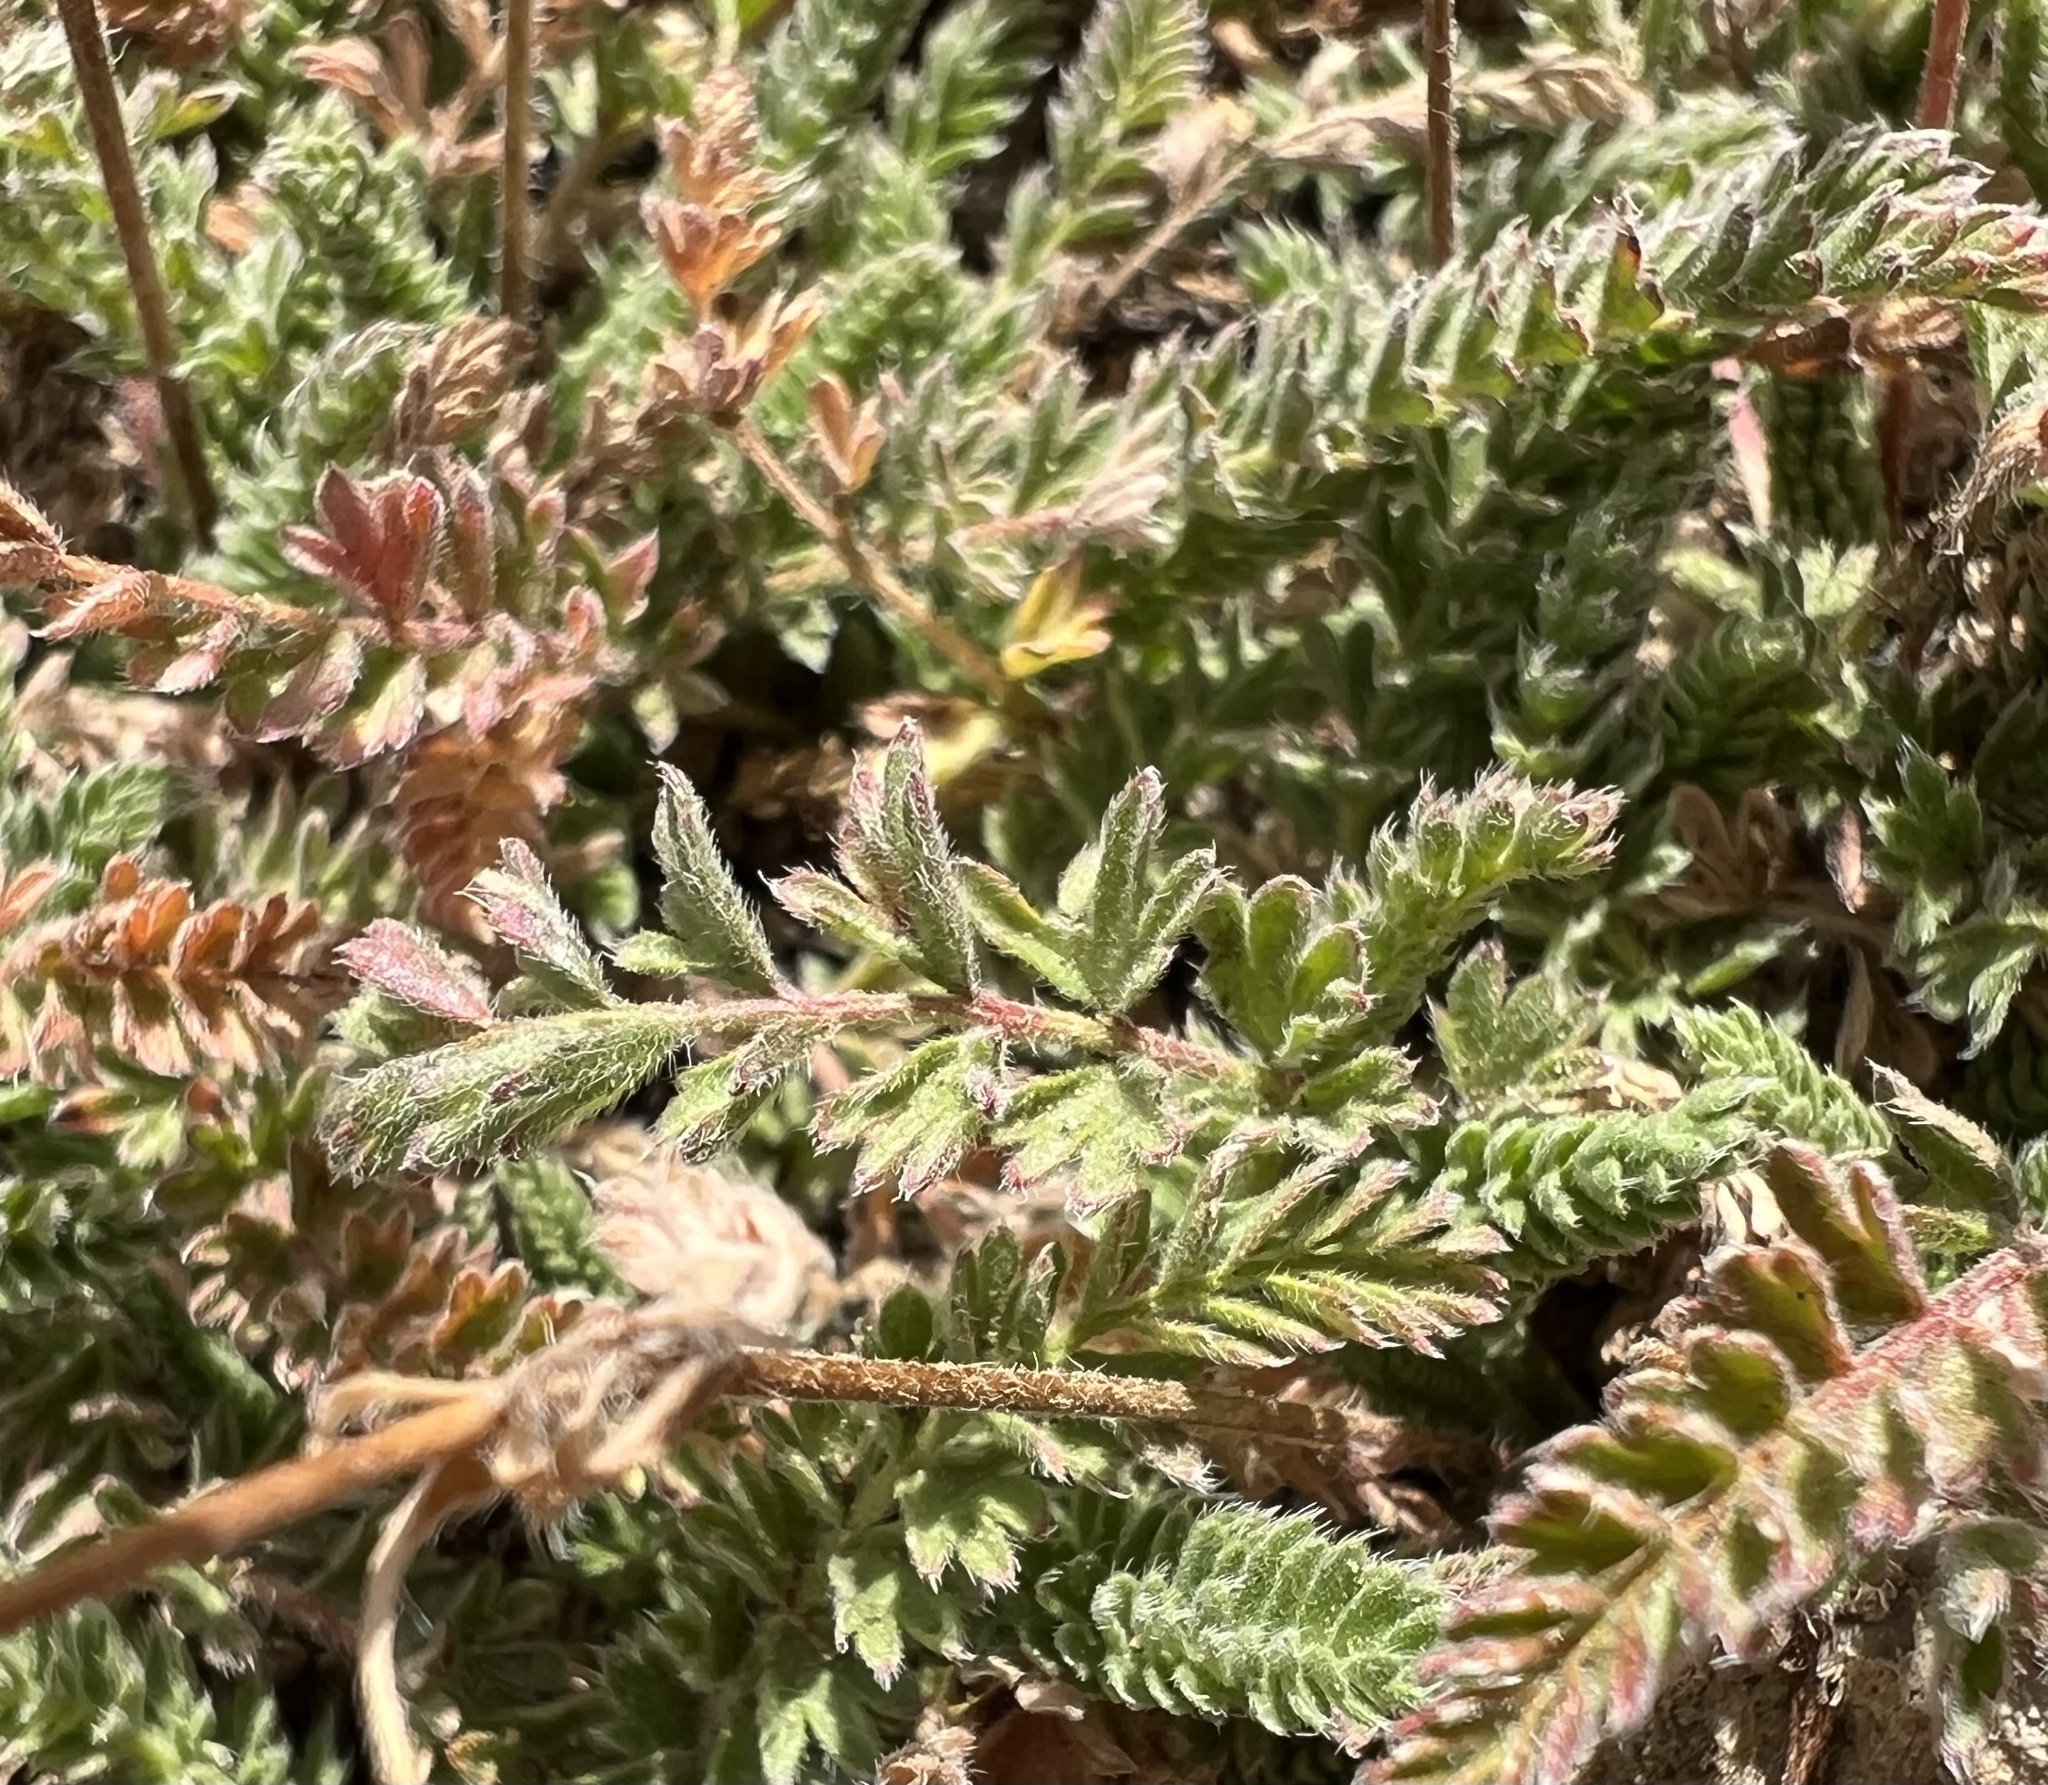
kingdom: Plantae
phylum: Tracheophyta
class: Magnoliopsida
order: Rosales
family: Rosaceae
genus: Potentilla
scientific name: Potentilla hispidula
